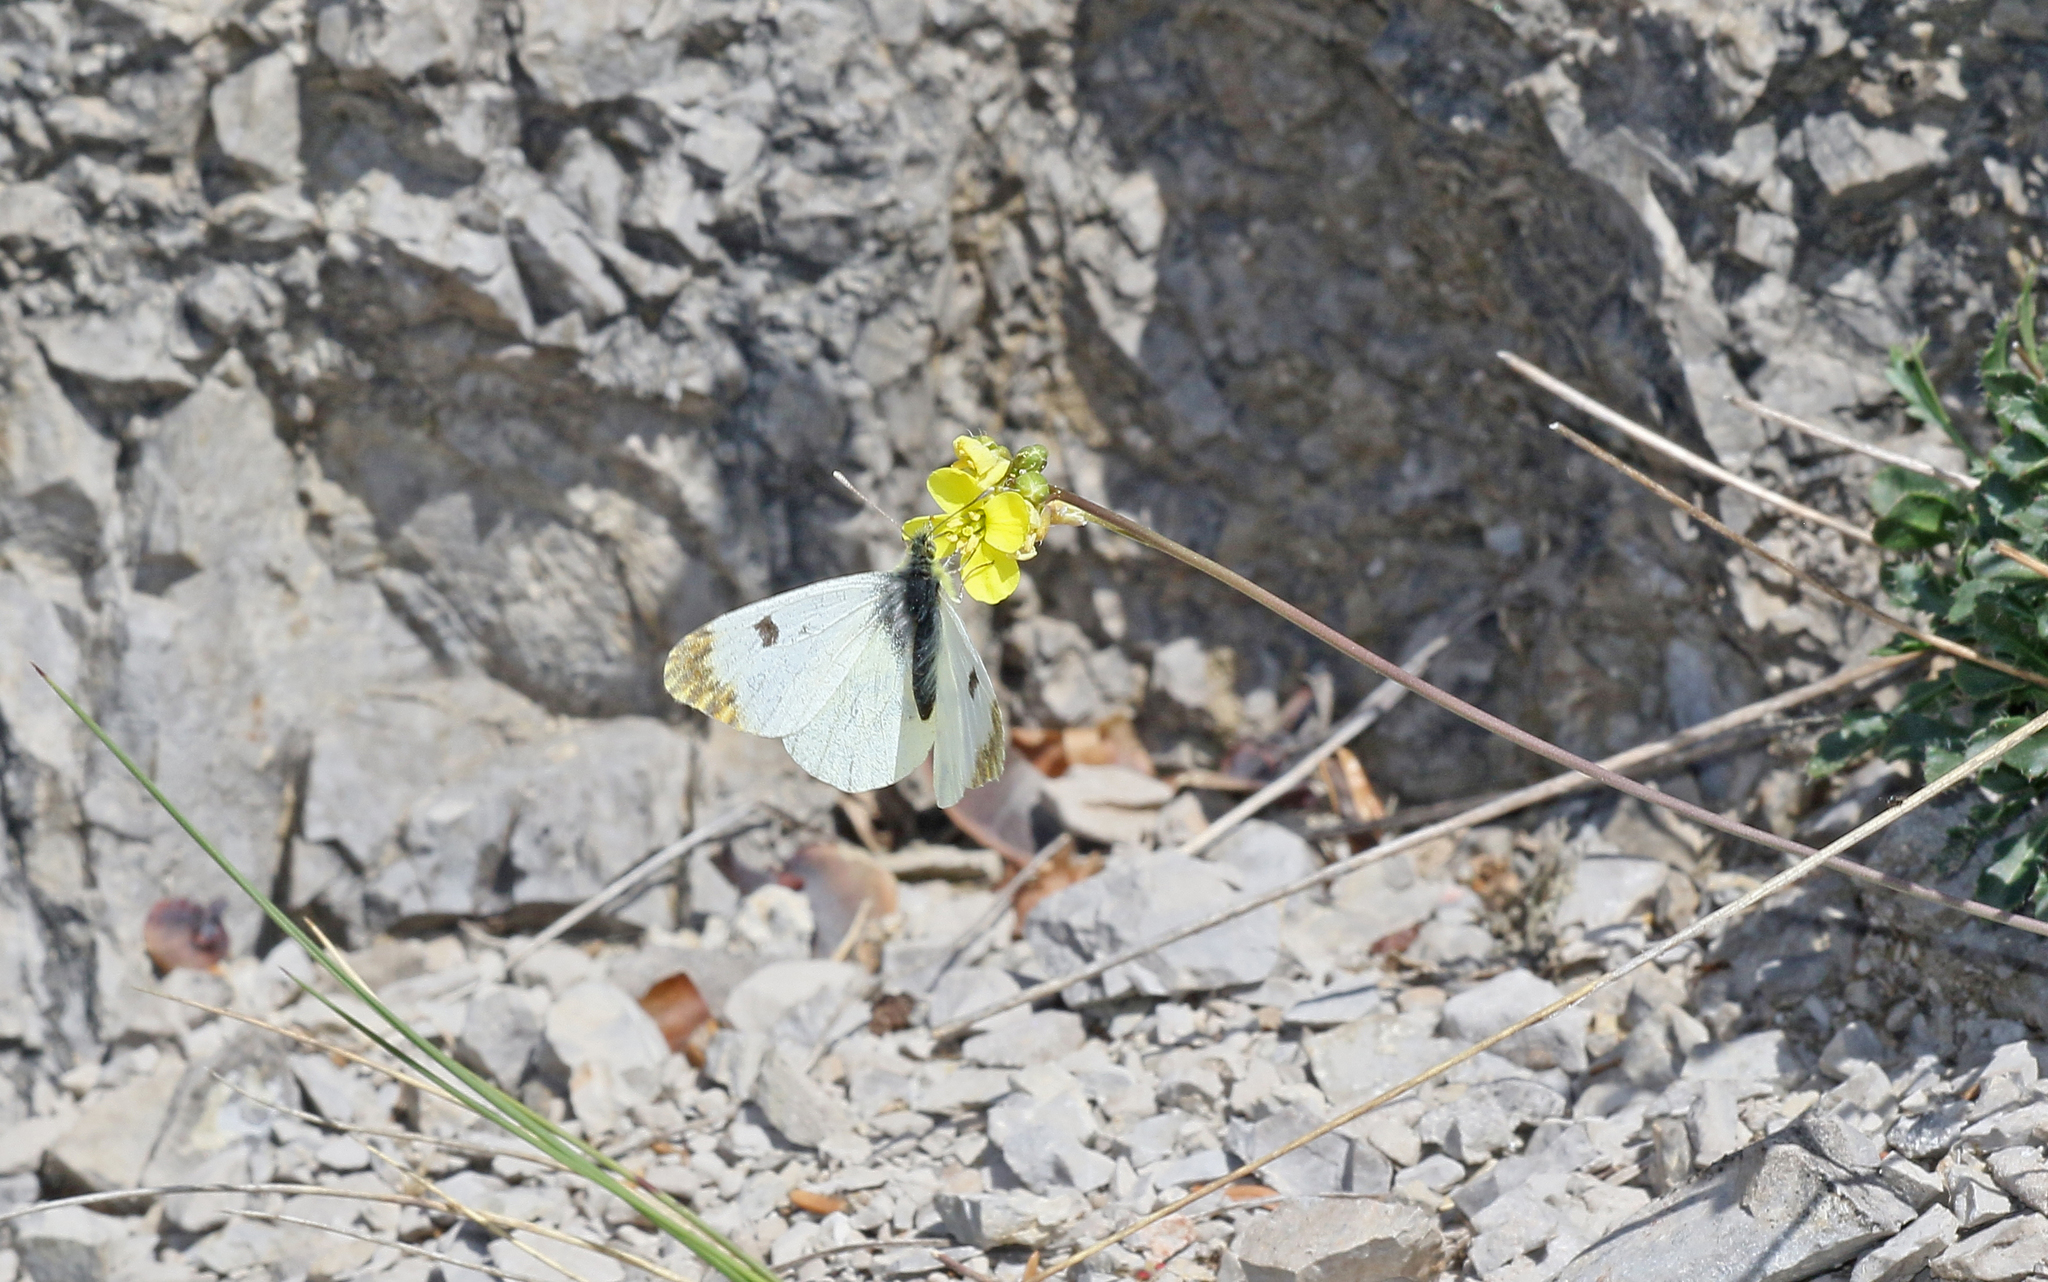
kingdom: Animalia
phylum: Arthropoda
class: Insecta
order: Lepidoptera
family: Pieridae
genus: Anthocharis
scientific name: Anthocharis euphenoides
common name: Provence orange-tip
